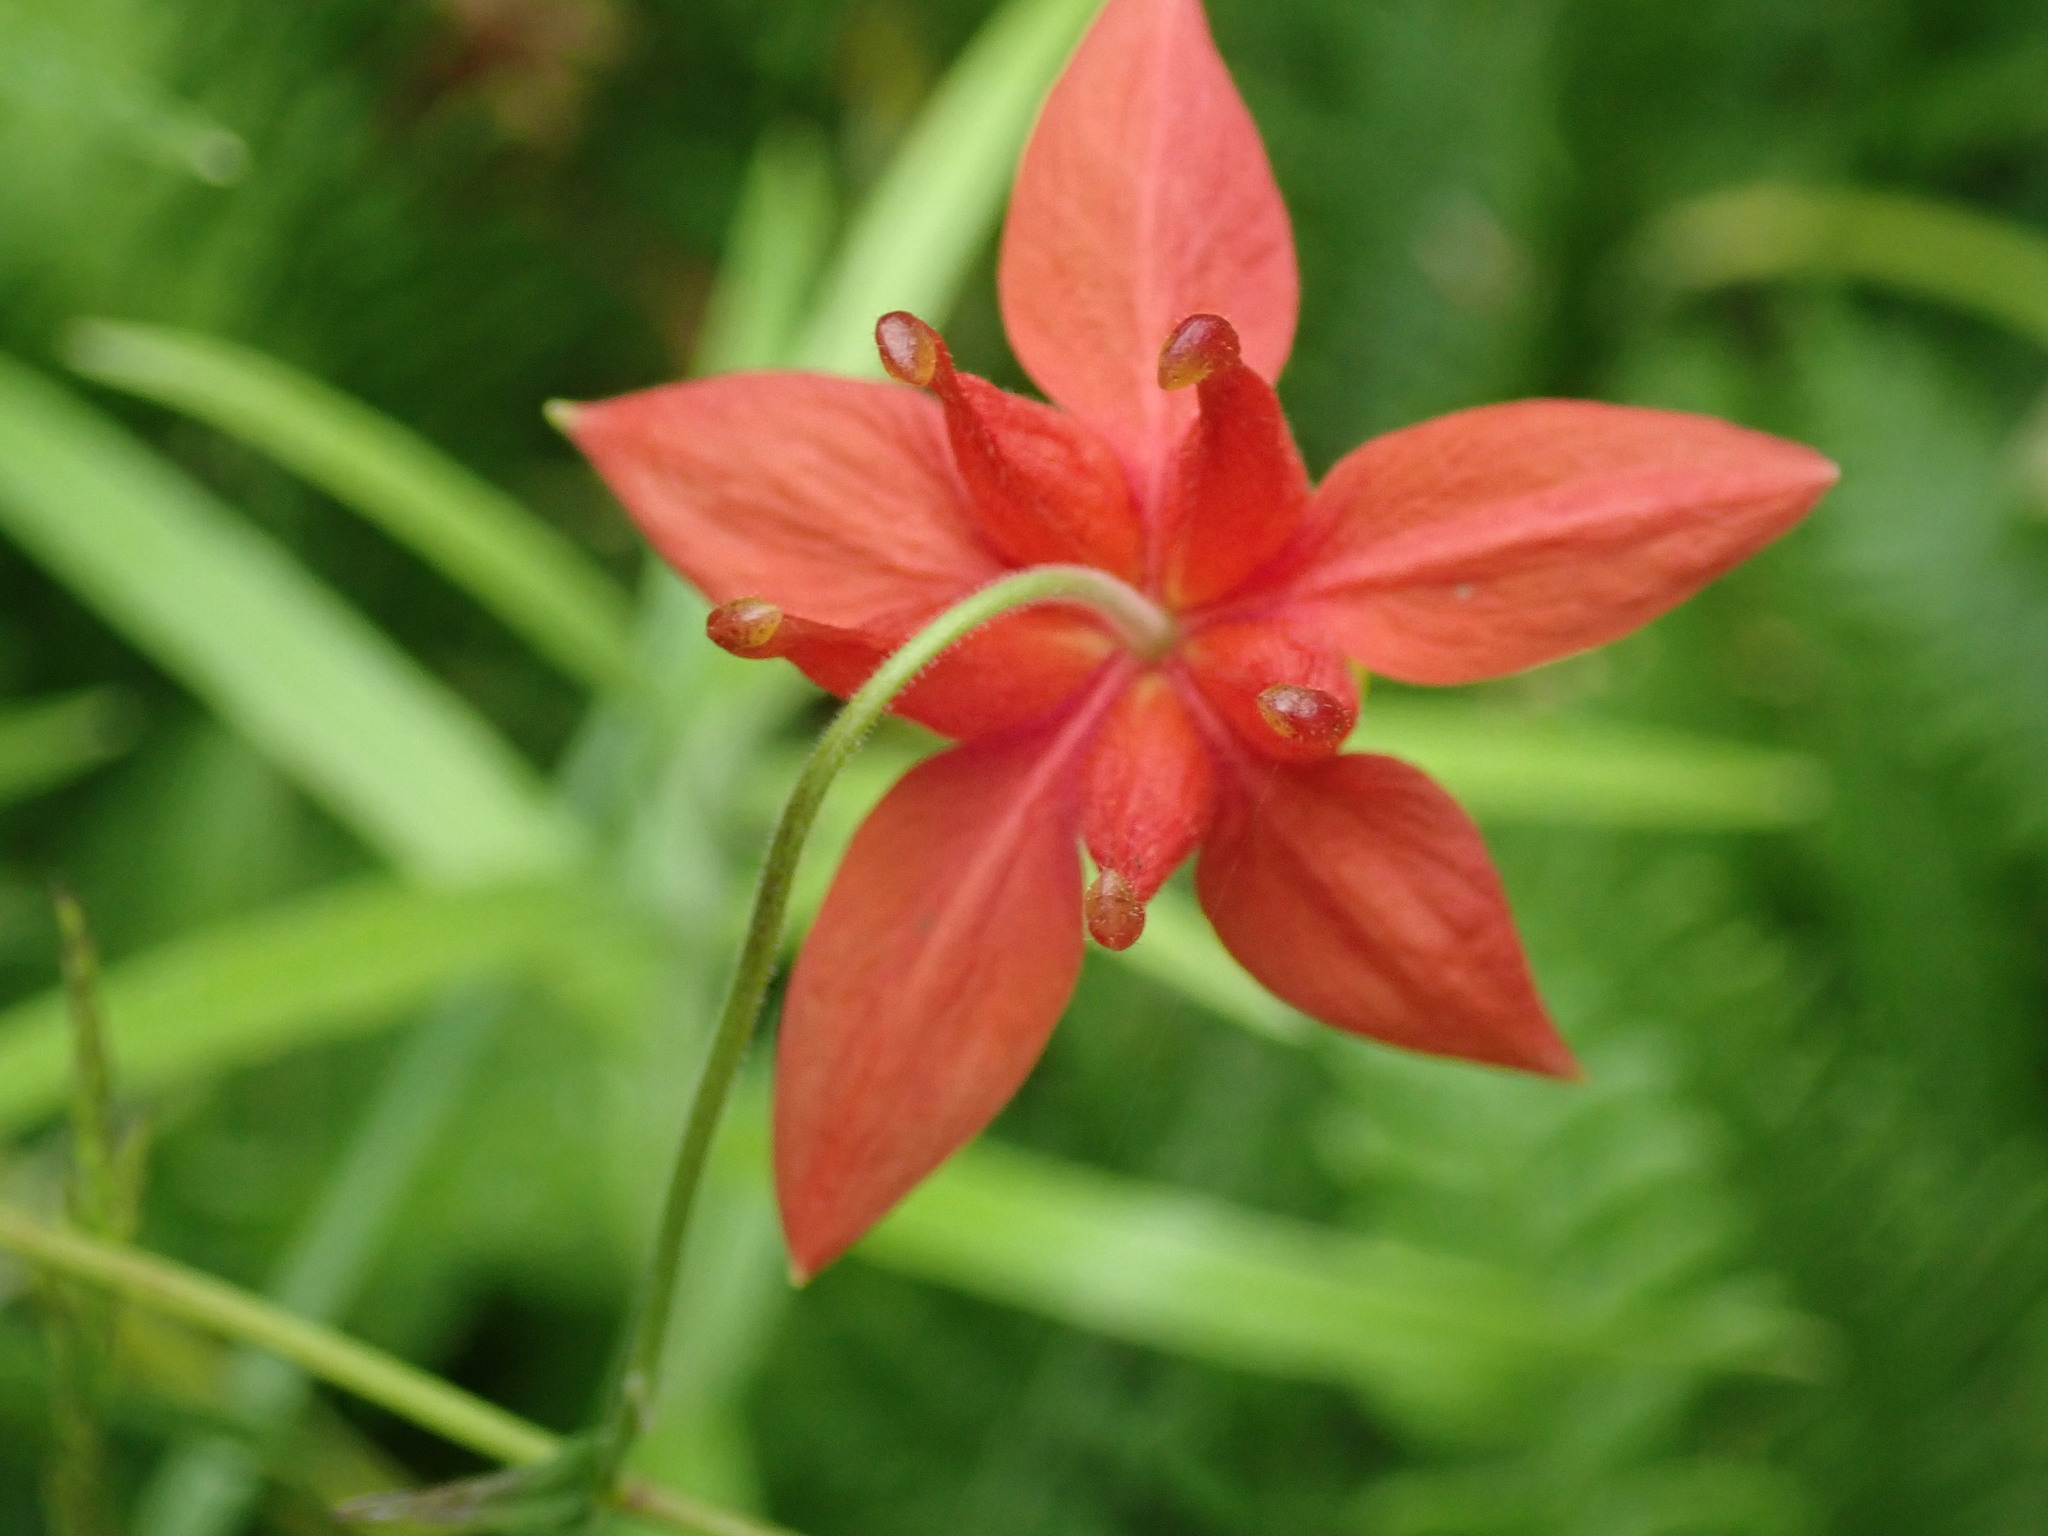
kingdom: Plantae
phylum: Tracheophyta
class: Magnoliopsida
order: Ranunculales
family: Ranunculaceae
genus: Aquilegia
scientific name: Aquilegia formosa
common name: Sitka columbine
